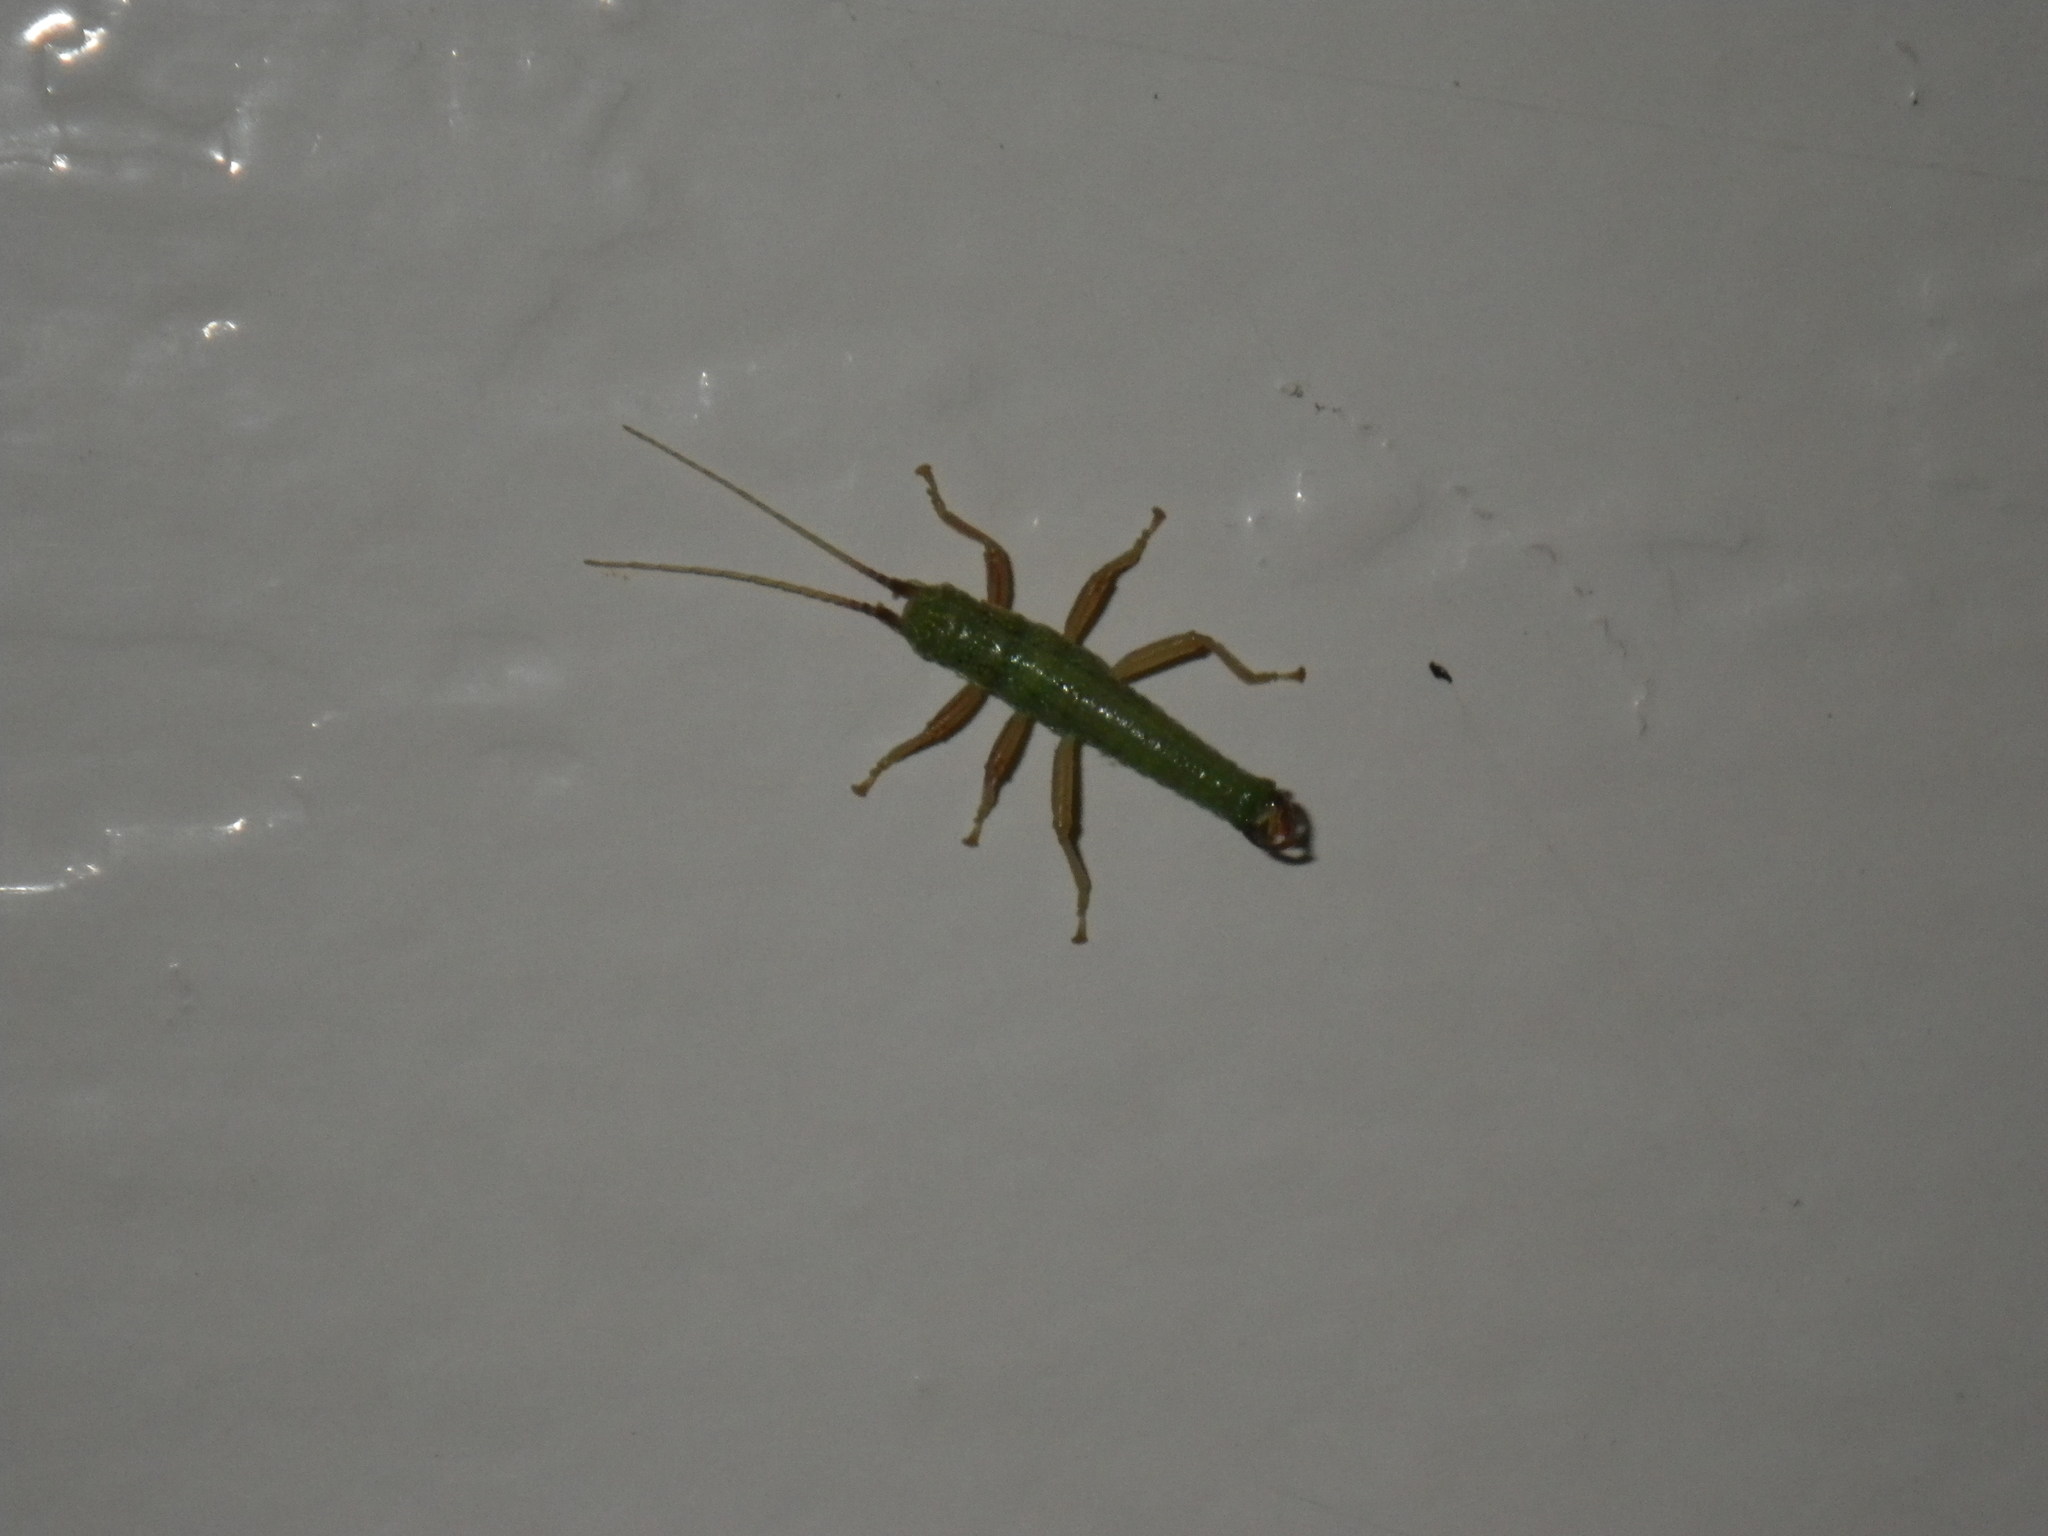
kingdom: Animalia
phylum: Arthropoda
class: Insecta
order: Phasmida
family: Timematidae
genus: Timema
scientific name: Timema californicum
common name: California timema
